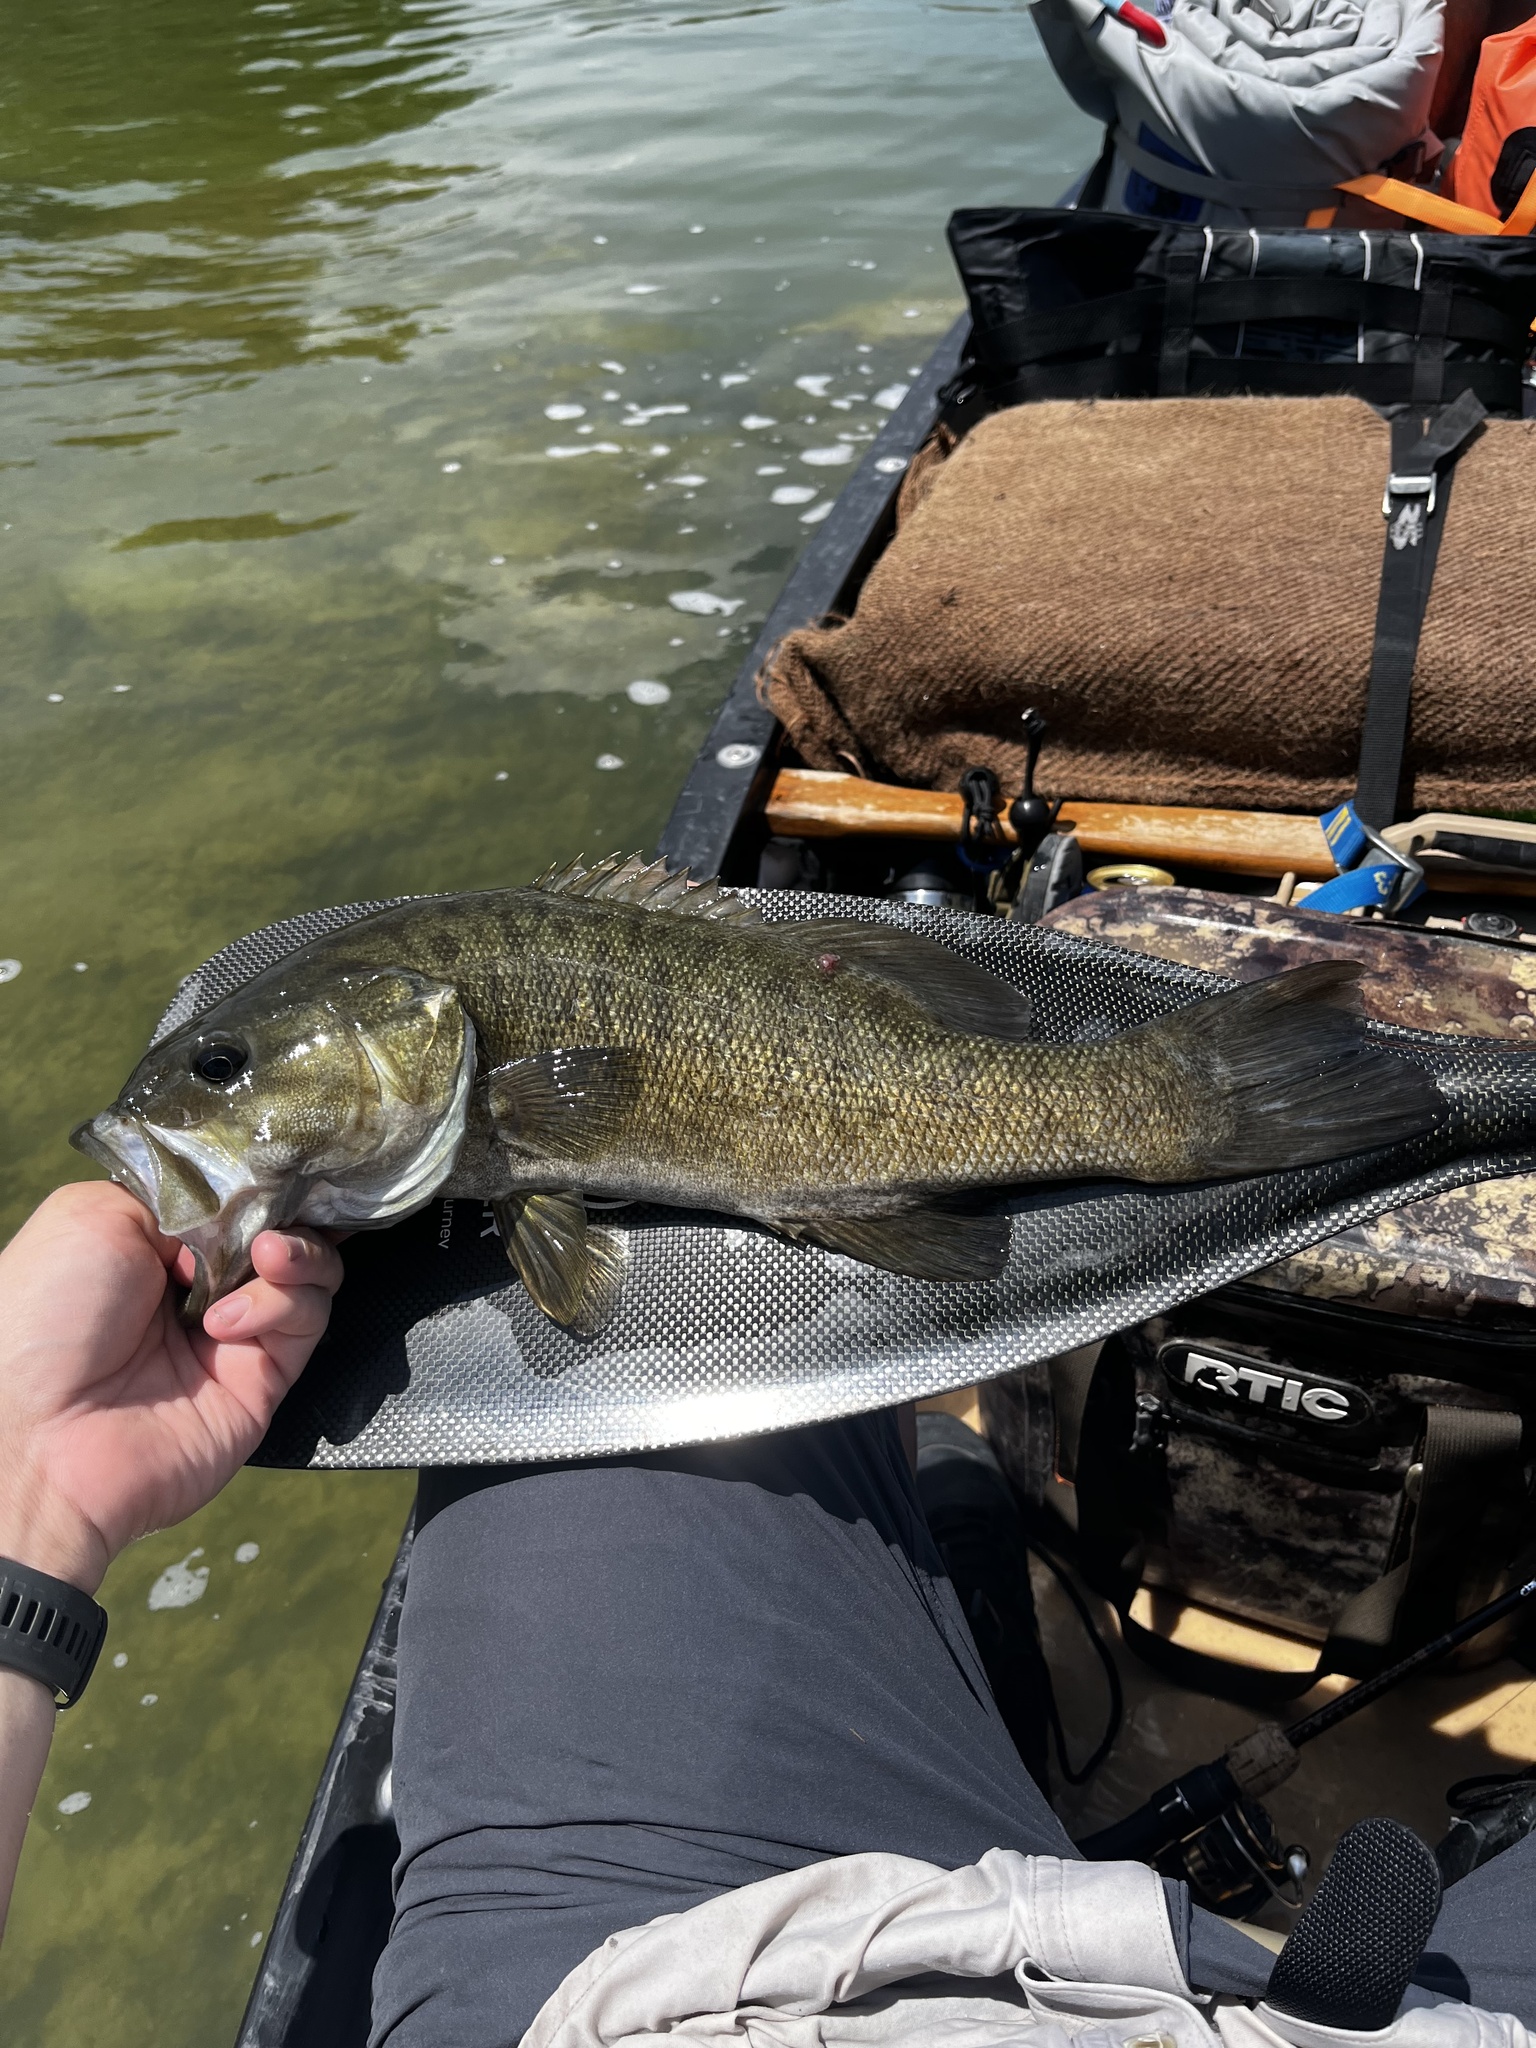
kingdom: Animalia
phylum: Chordata
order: Perciformes
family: Centrarchidae
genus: Micropterus
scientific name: Micropterus dolomieu
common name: Smallmouth bass
